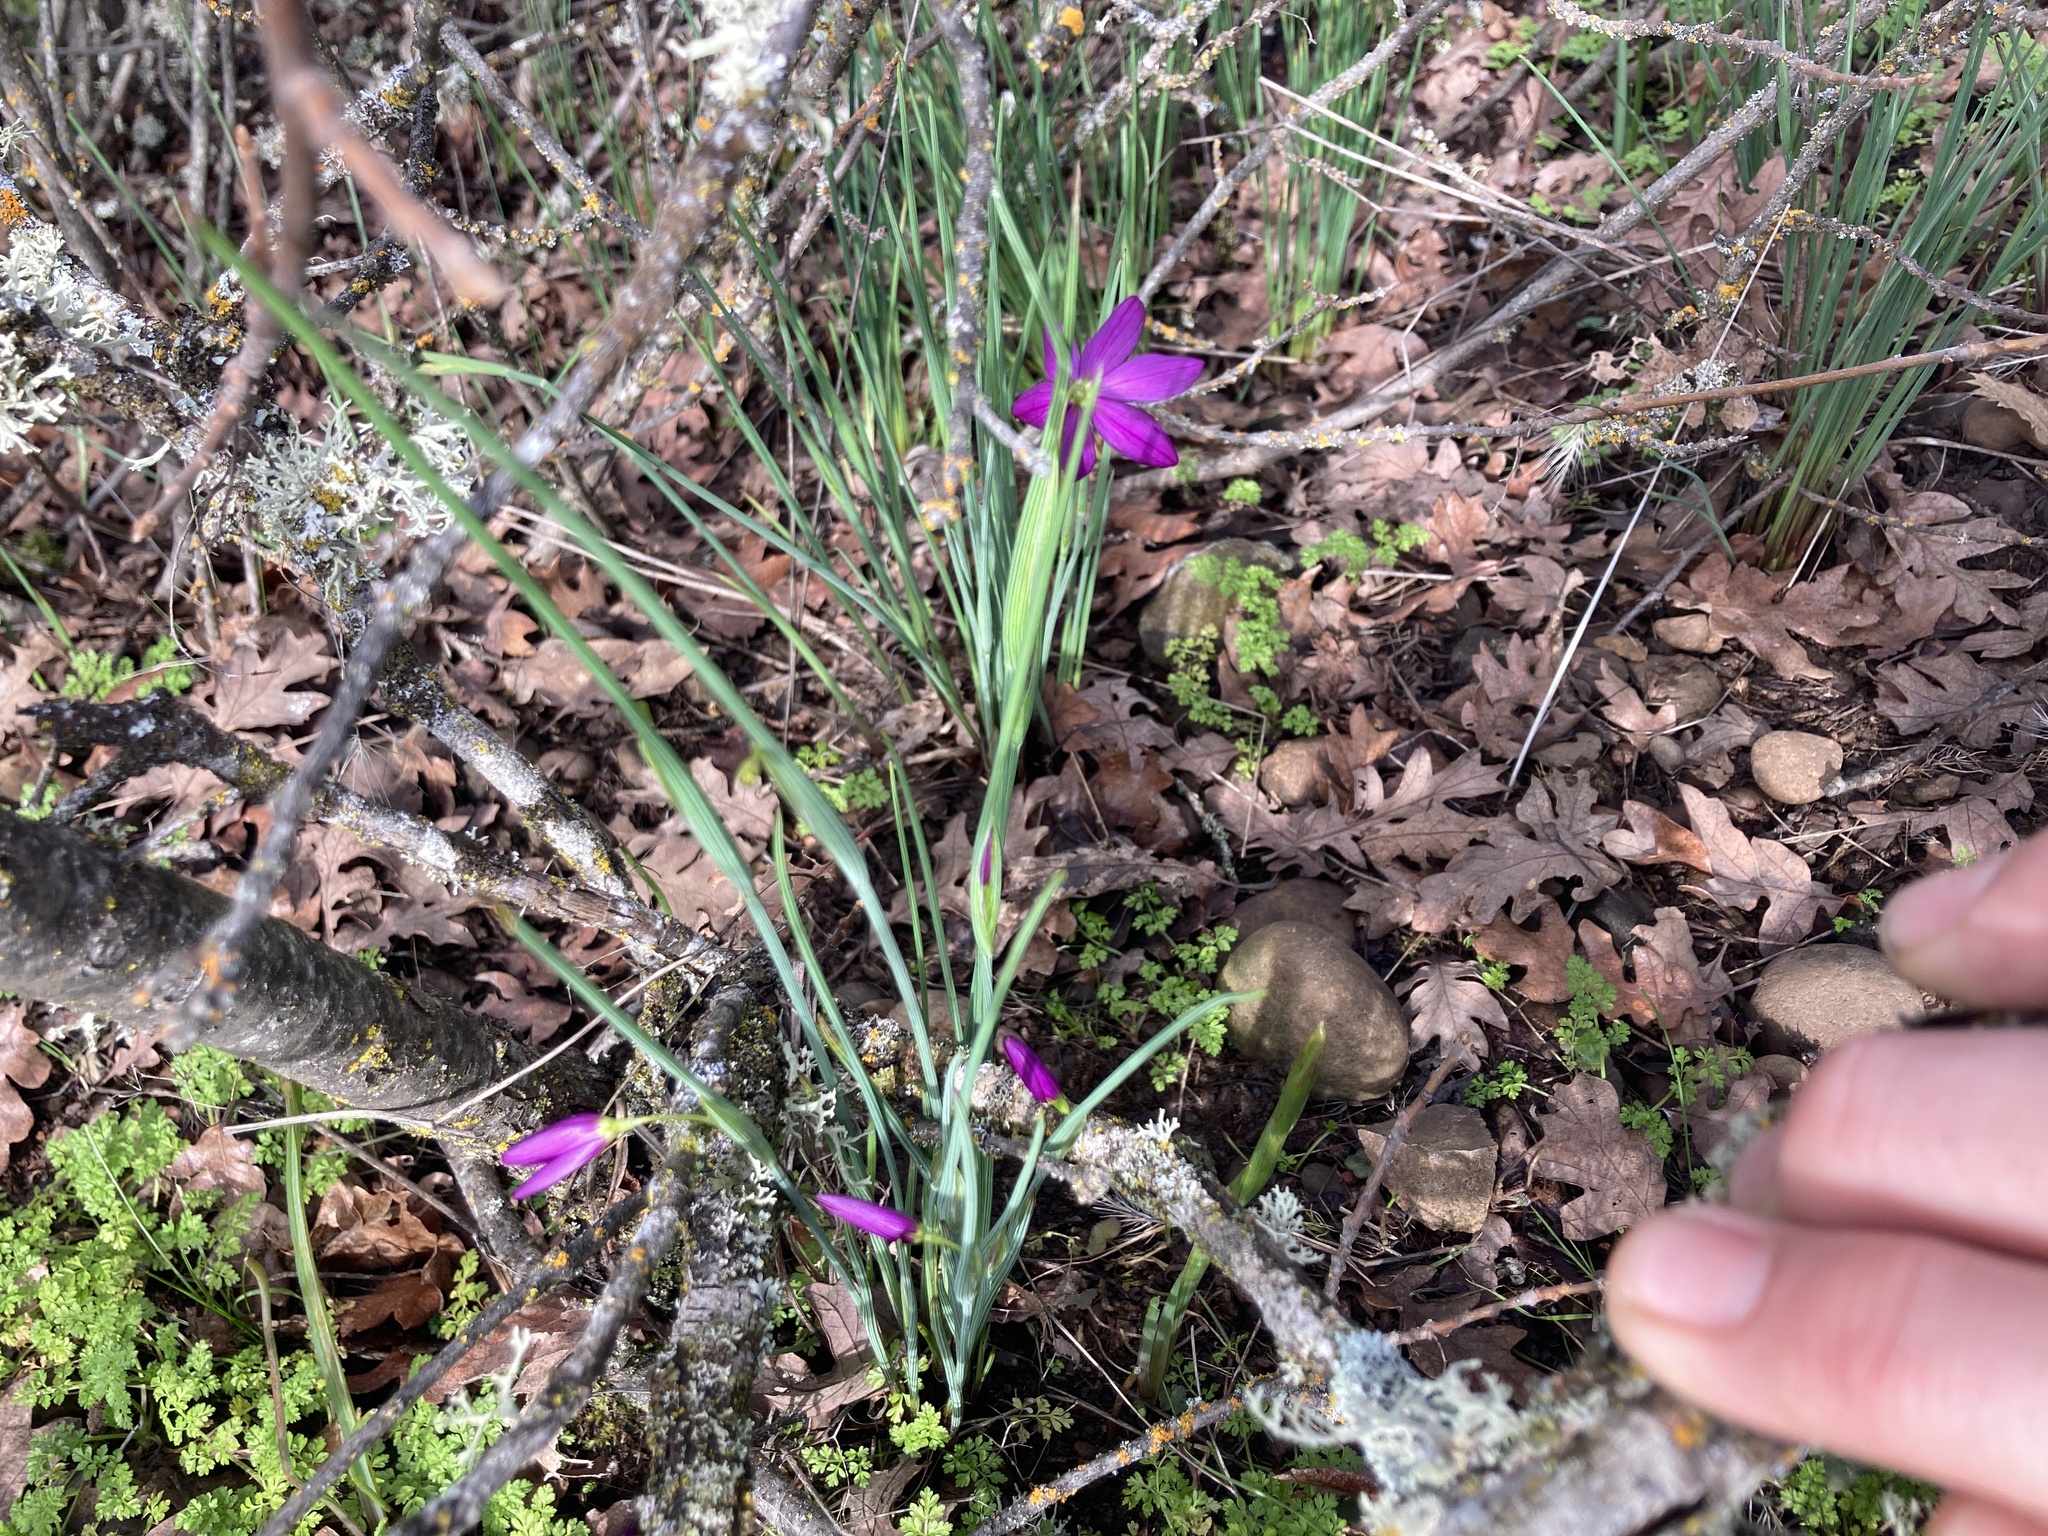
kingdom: Plantae
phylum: Tracheophyta
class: Liliopsida
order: Asparagales
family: Iridaceae
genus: Olsynium
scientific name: Olsynium douglasii
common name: Douglas' grasswidow
